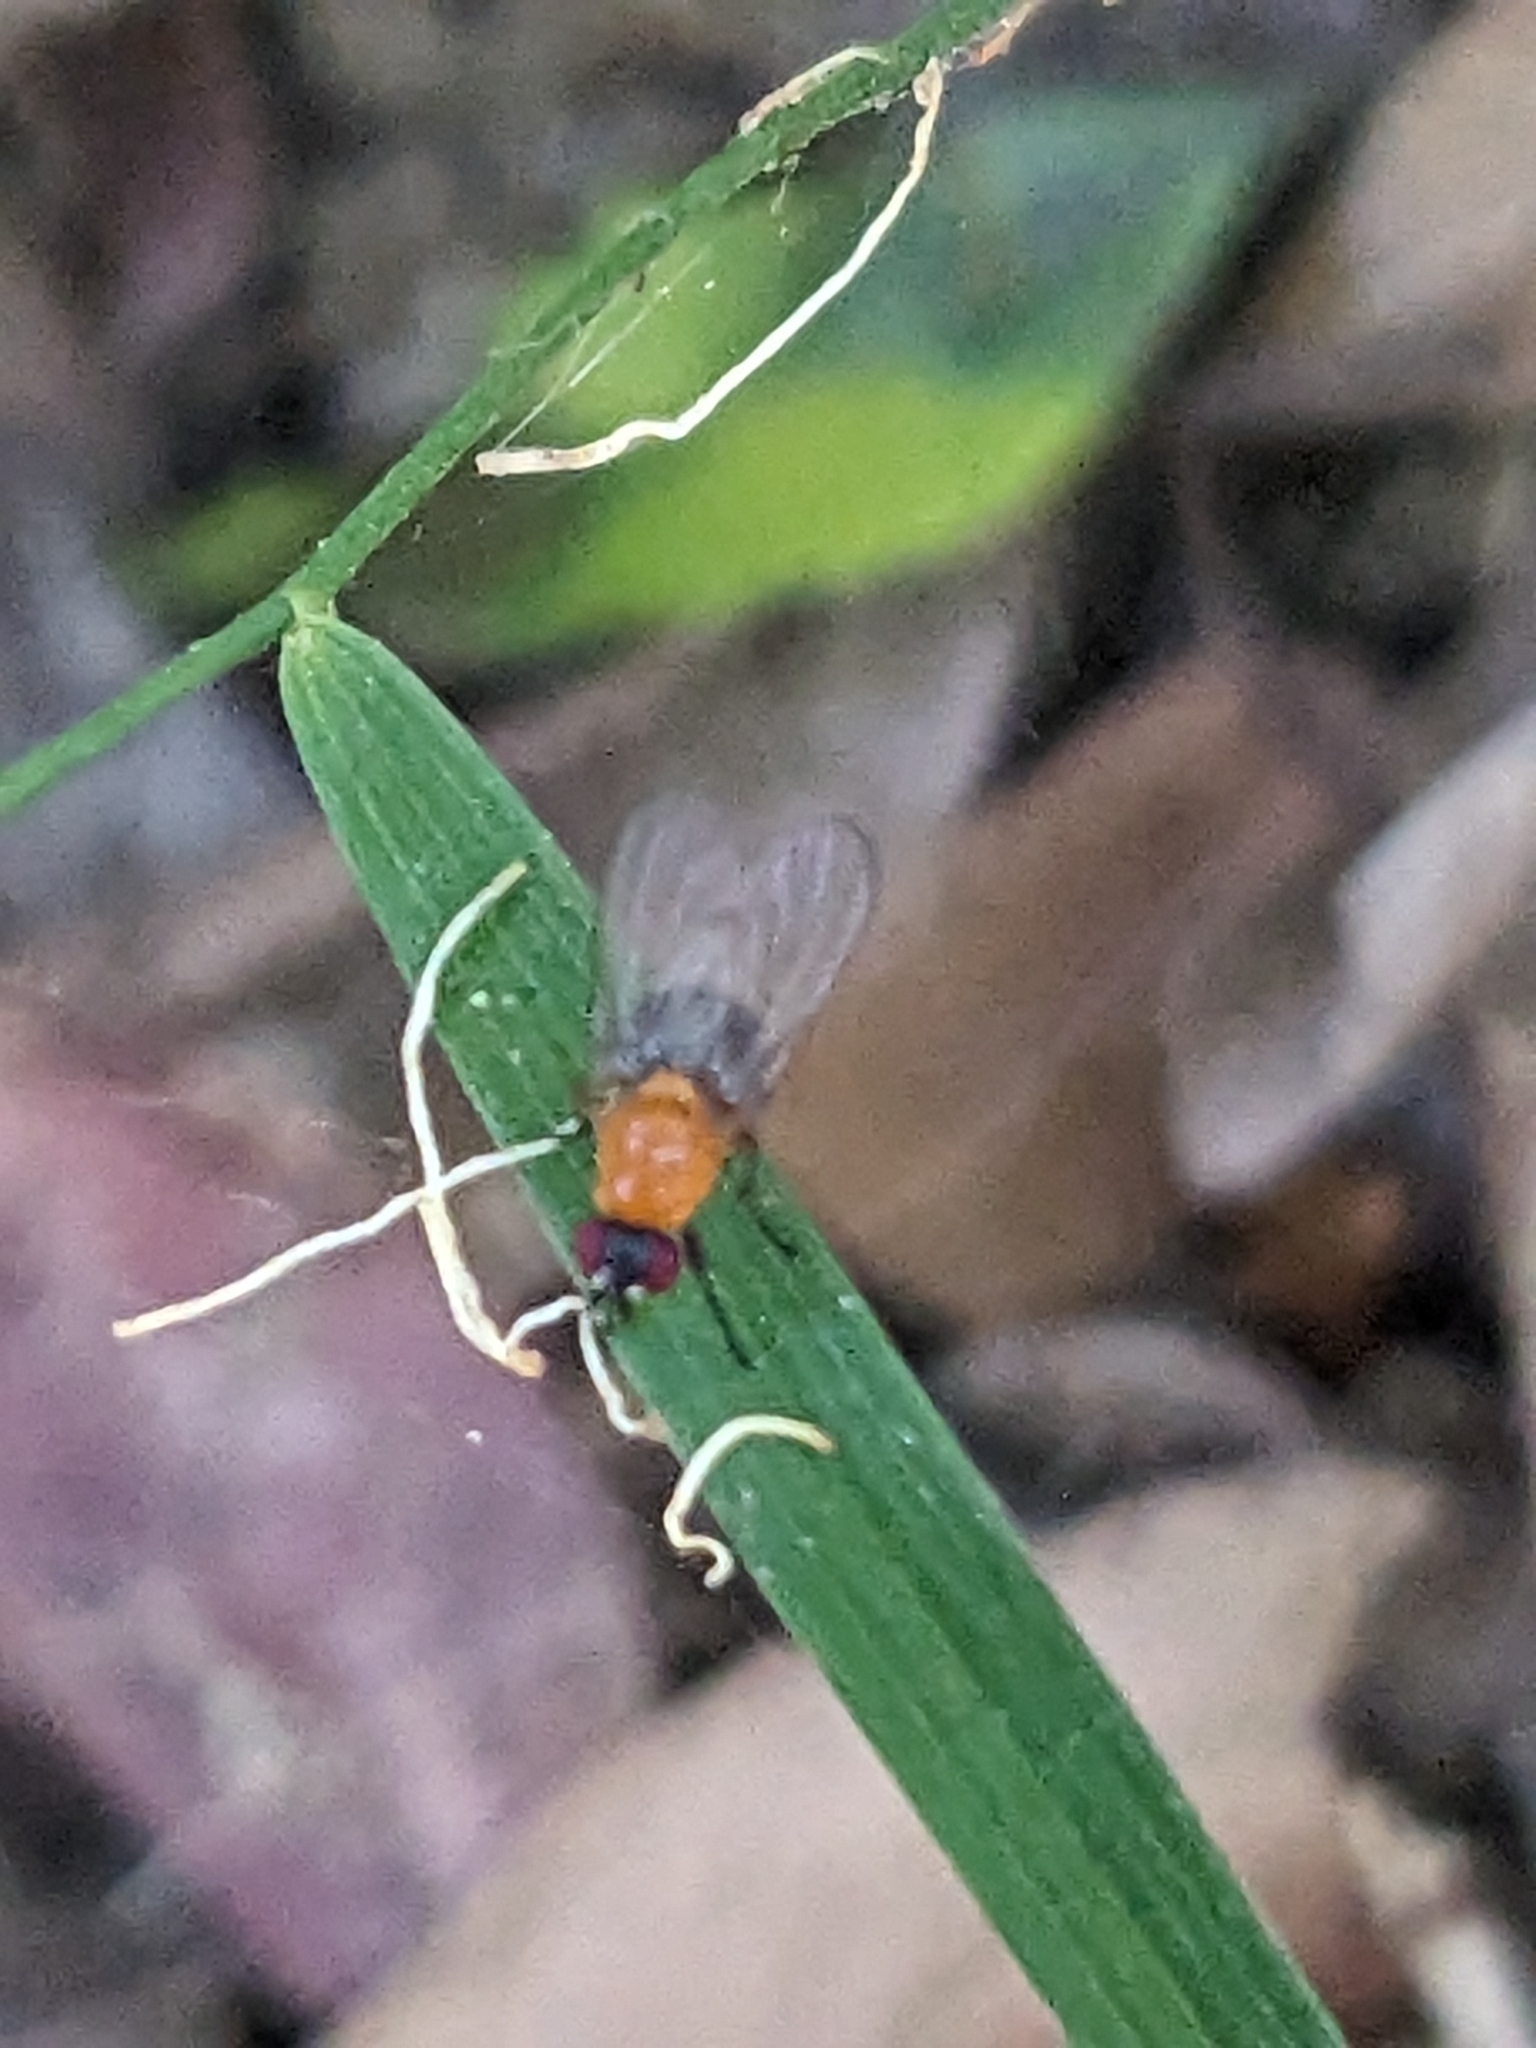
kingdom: Plantae
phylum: Tracheophyta
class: Liliopsida
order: Asparagales
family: Asparagaceae
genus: Eustrephus
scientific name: Eustrephus latifolius
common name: Orangevine
